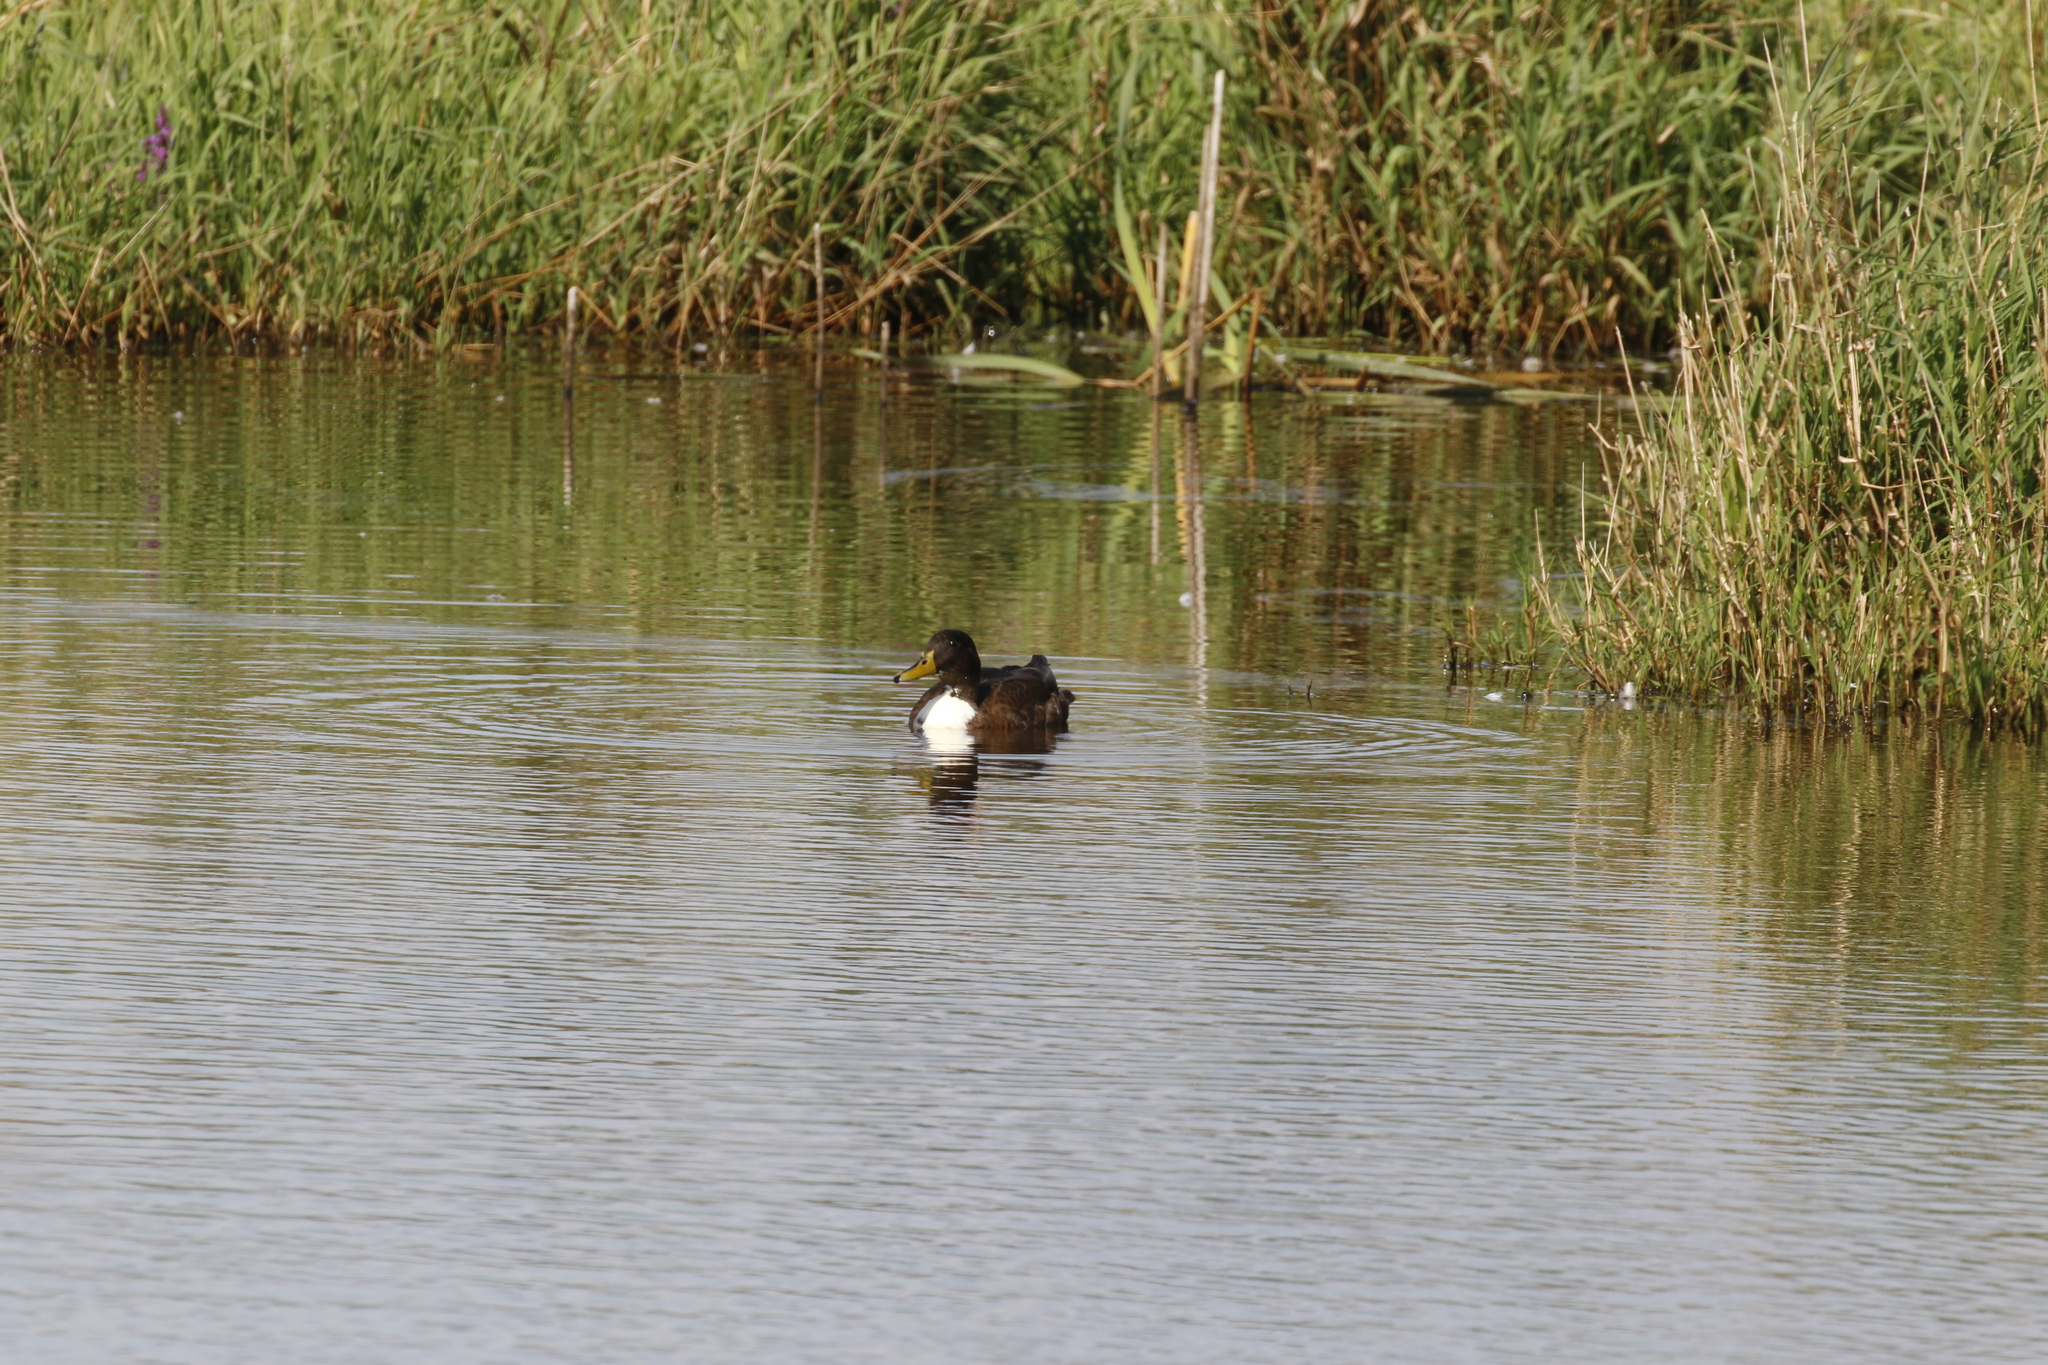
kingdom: Animalia
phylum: Chordata
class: Aves
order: Anseriformes
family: Anatidae
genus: Anas
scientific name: Anas platyrhynchos
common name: Mallard
